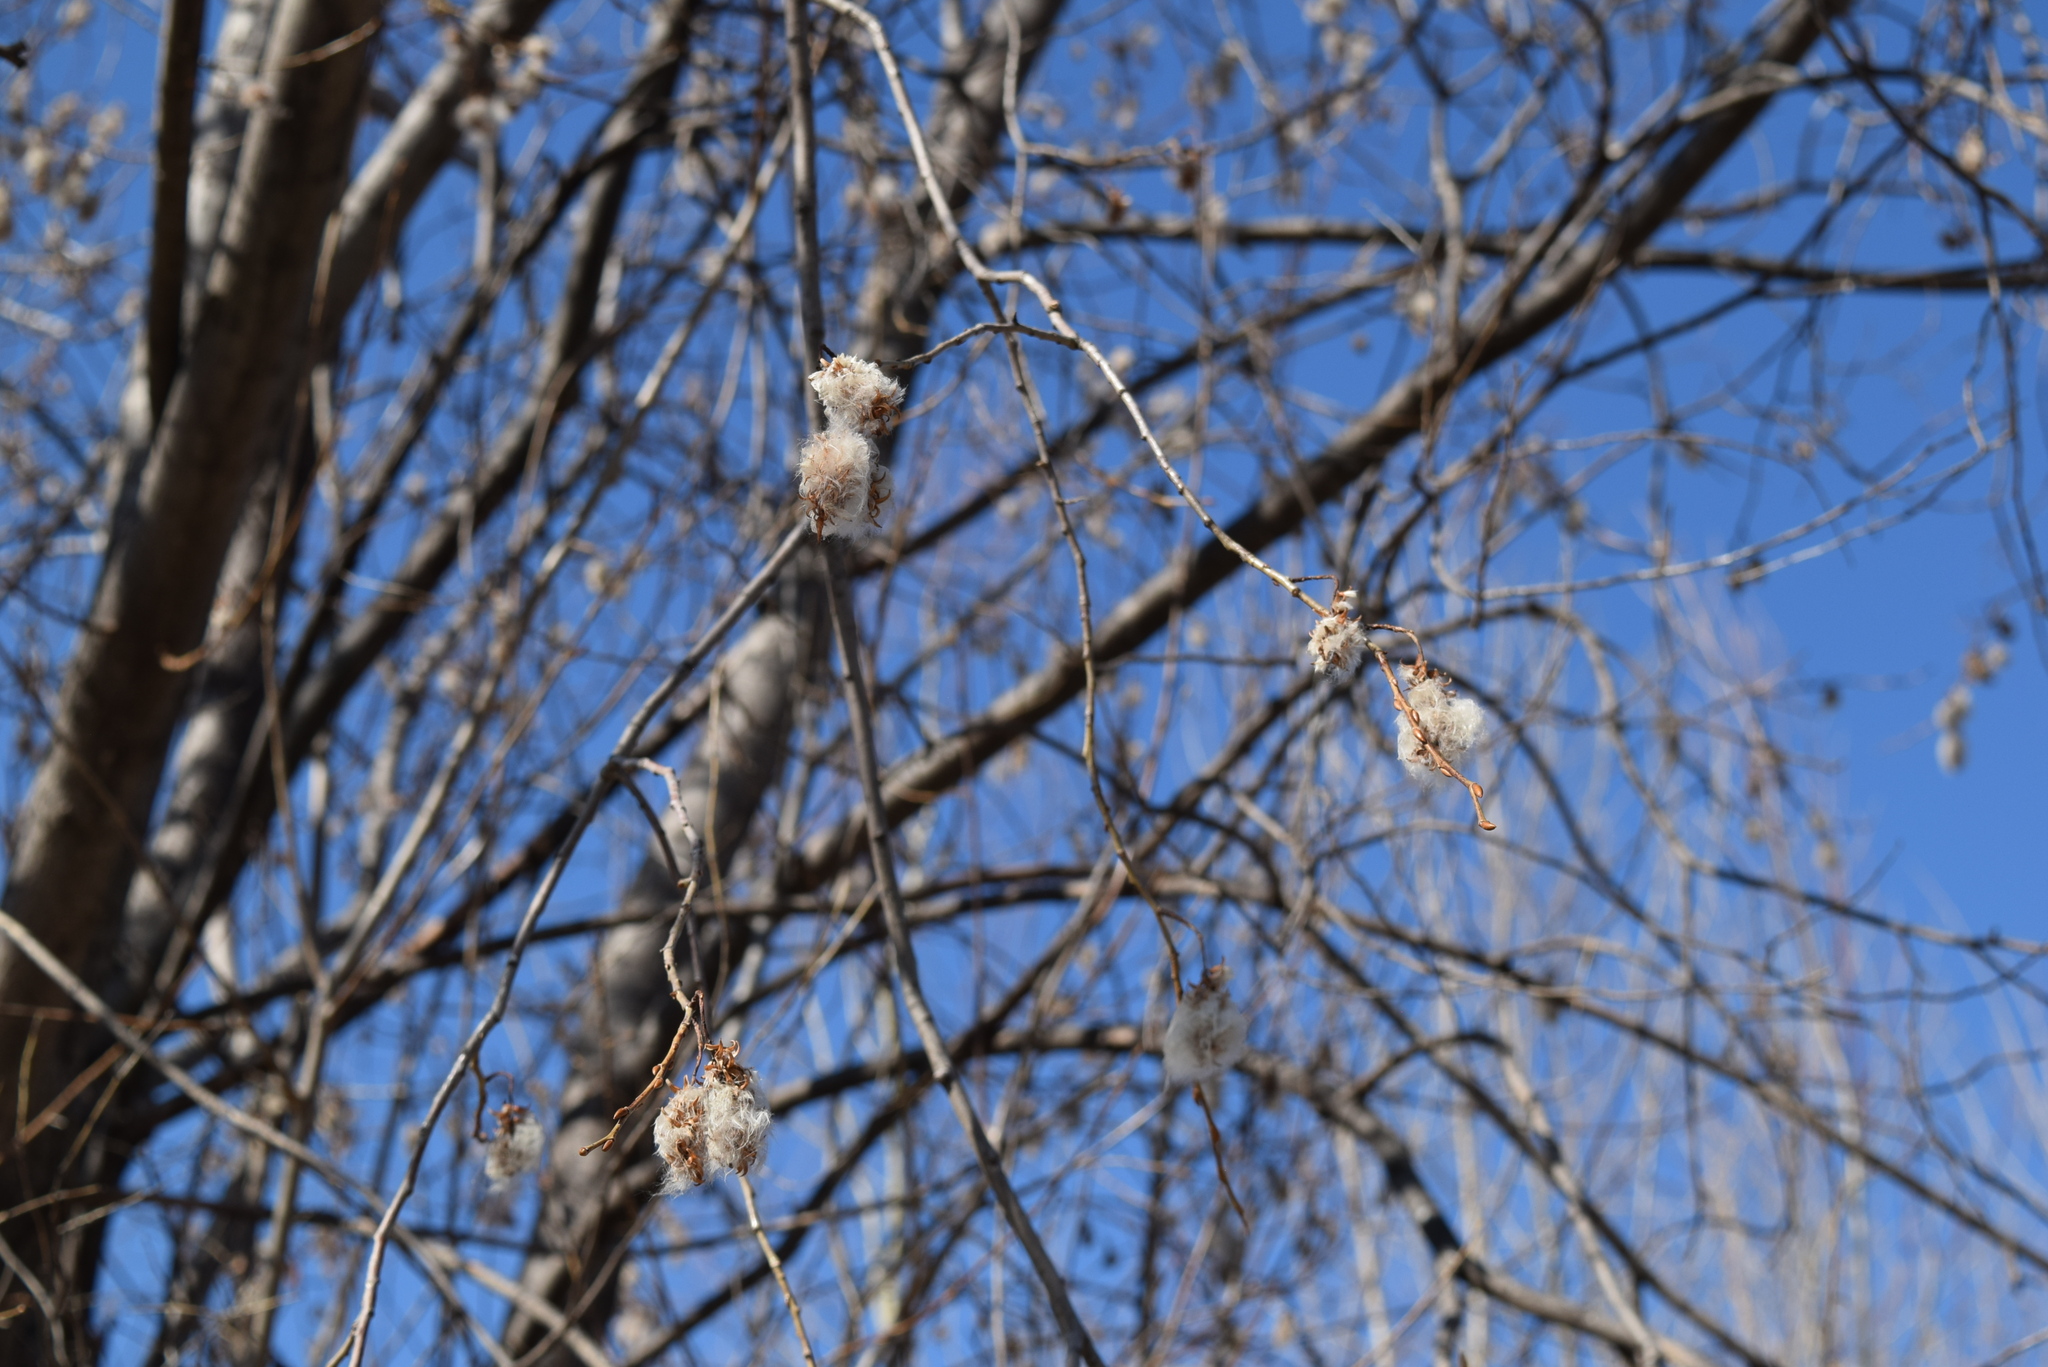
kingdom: Plantae
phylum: Tracheophyta
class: Magnoliopsida
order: Malpighiales
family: Salicaceae
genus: Salix
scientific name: Salix pentandra
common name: Bay willow
